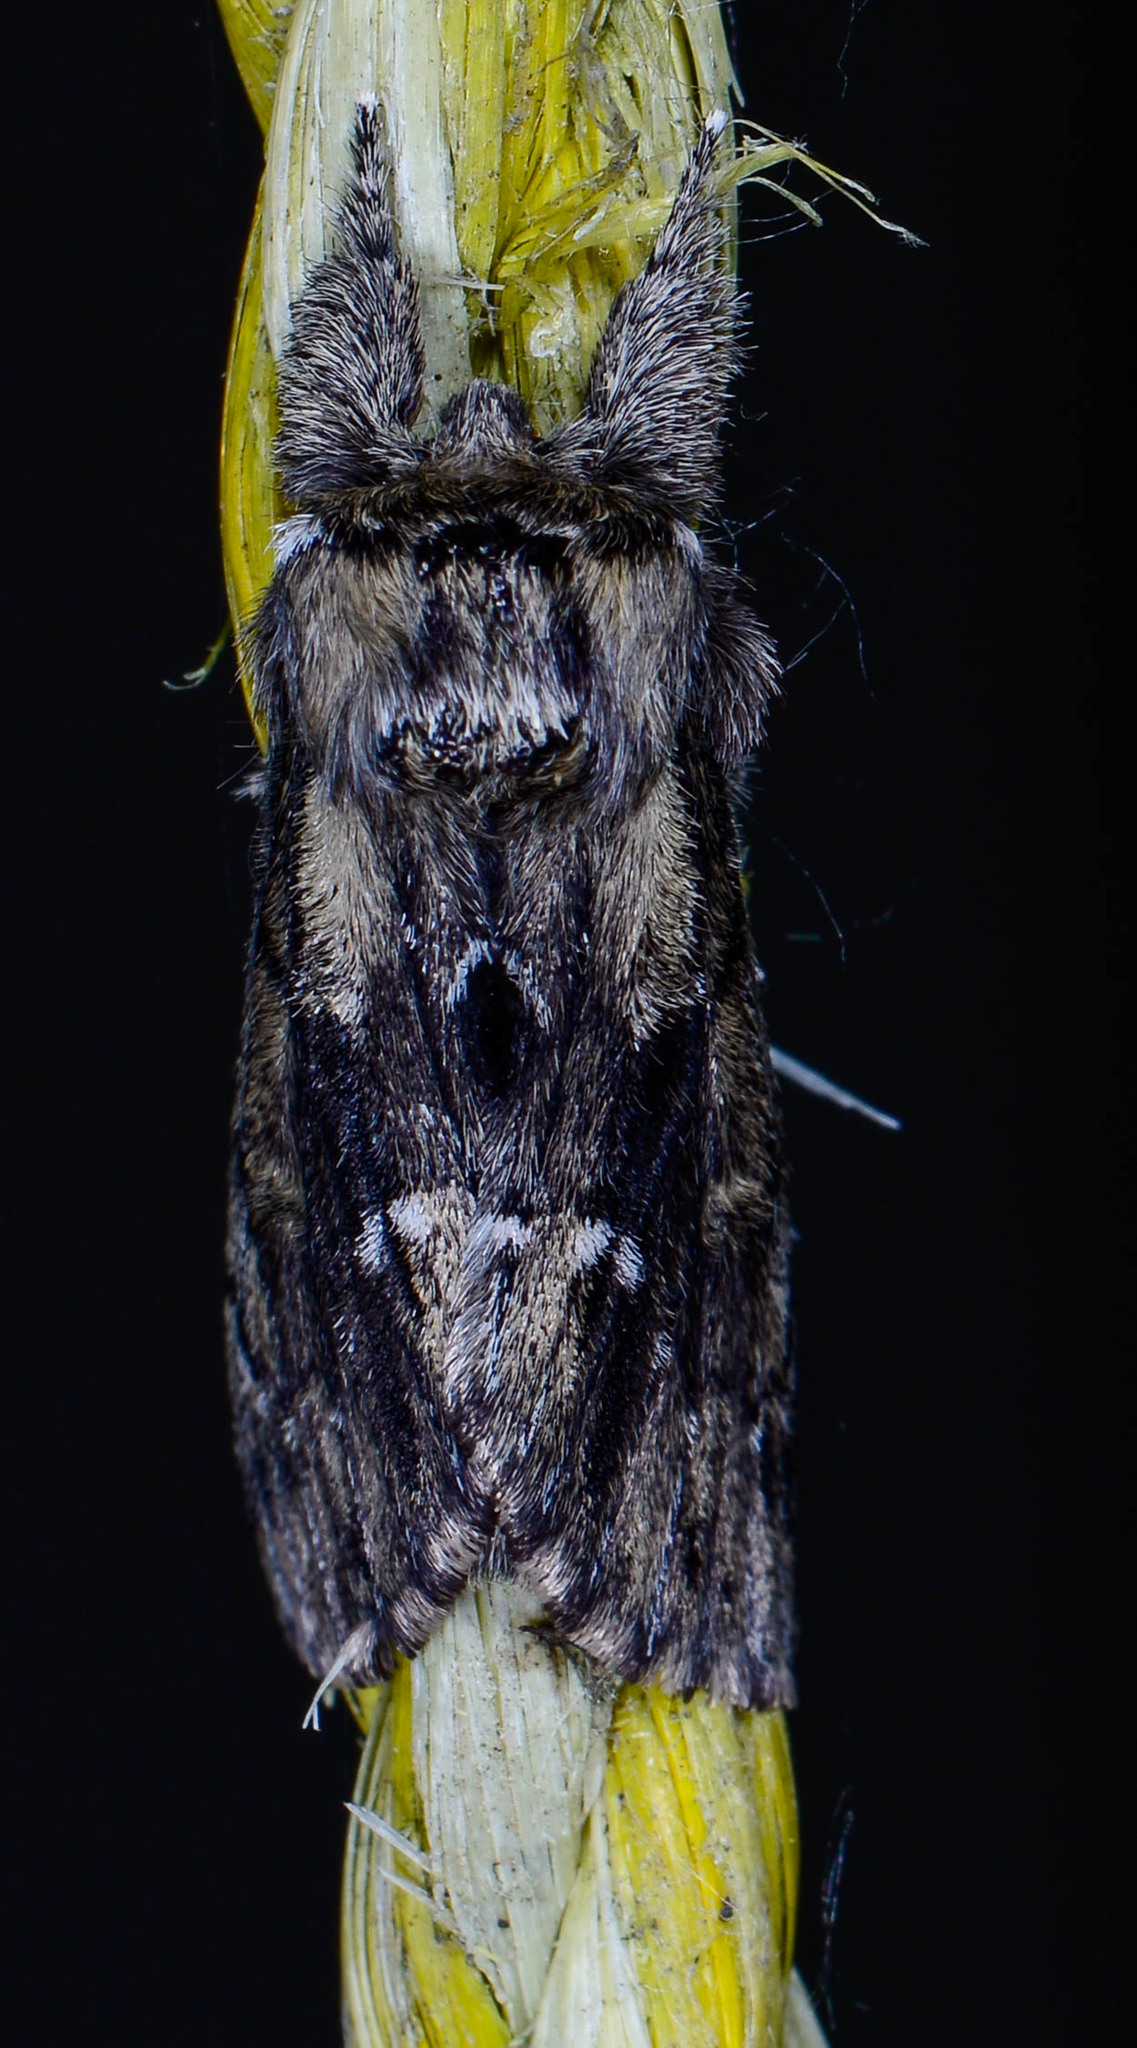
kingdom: Animalia
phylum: Arthropoda
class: Insecta
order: Lepidoptera
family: Notodontidae
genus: Paraeschra
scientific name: Paraeschra georgica
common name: Georgian prominent
